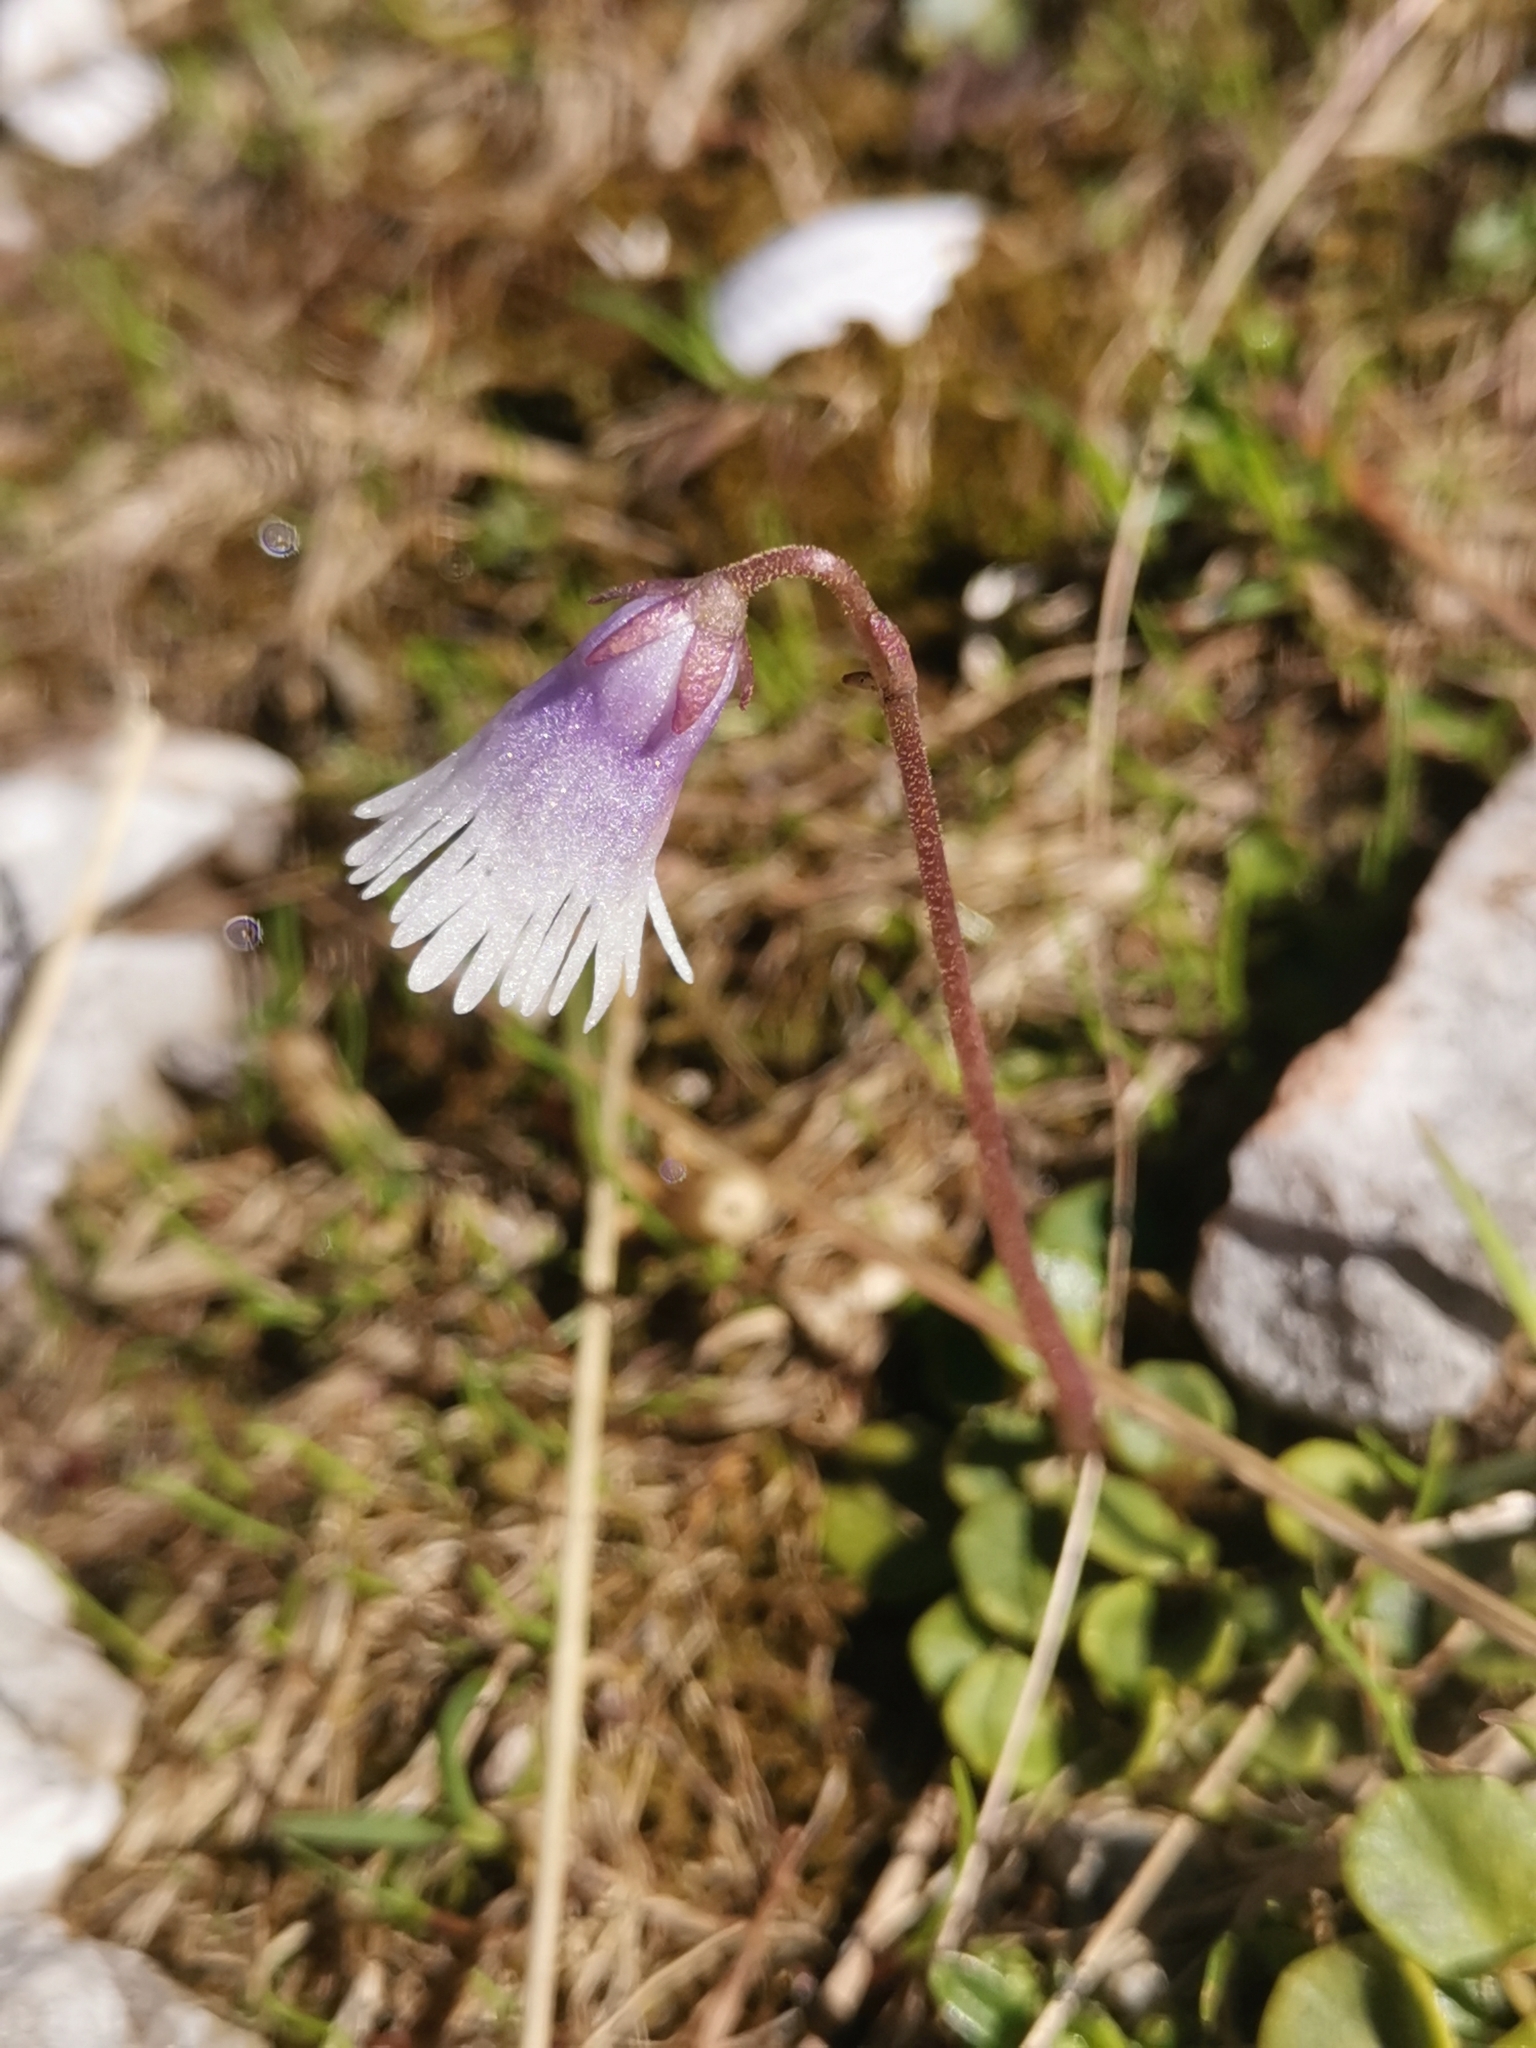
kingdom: Plantae
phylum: Tracheophyta
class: Magnoliopsida
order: Ericales
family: Primulaceae
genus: Soldanella
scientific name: Soldanella minima
